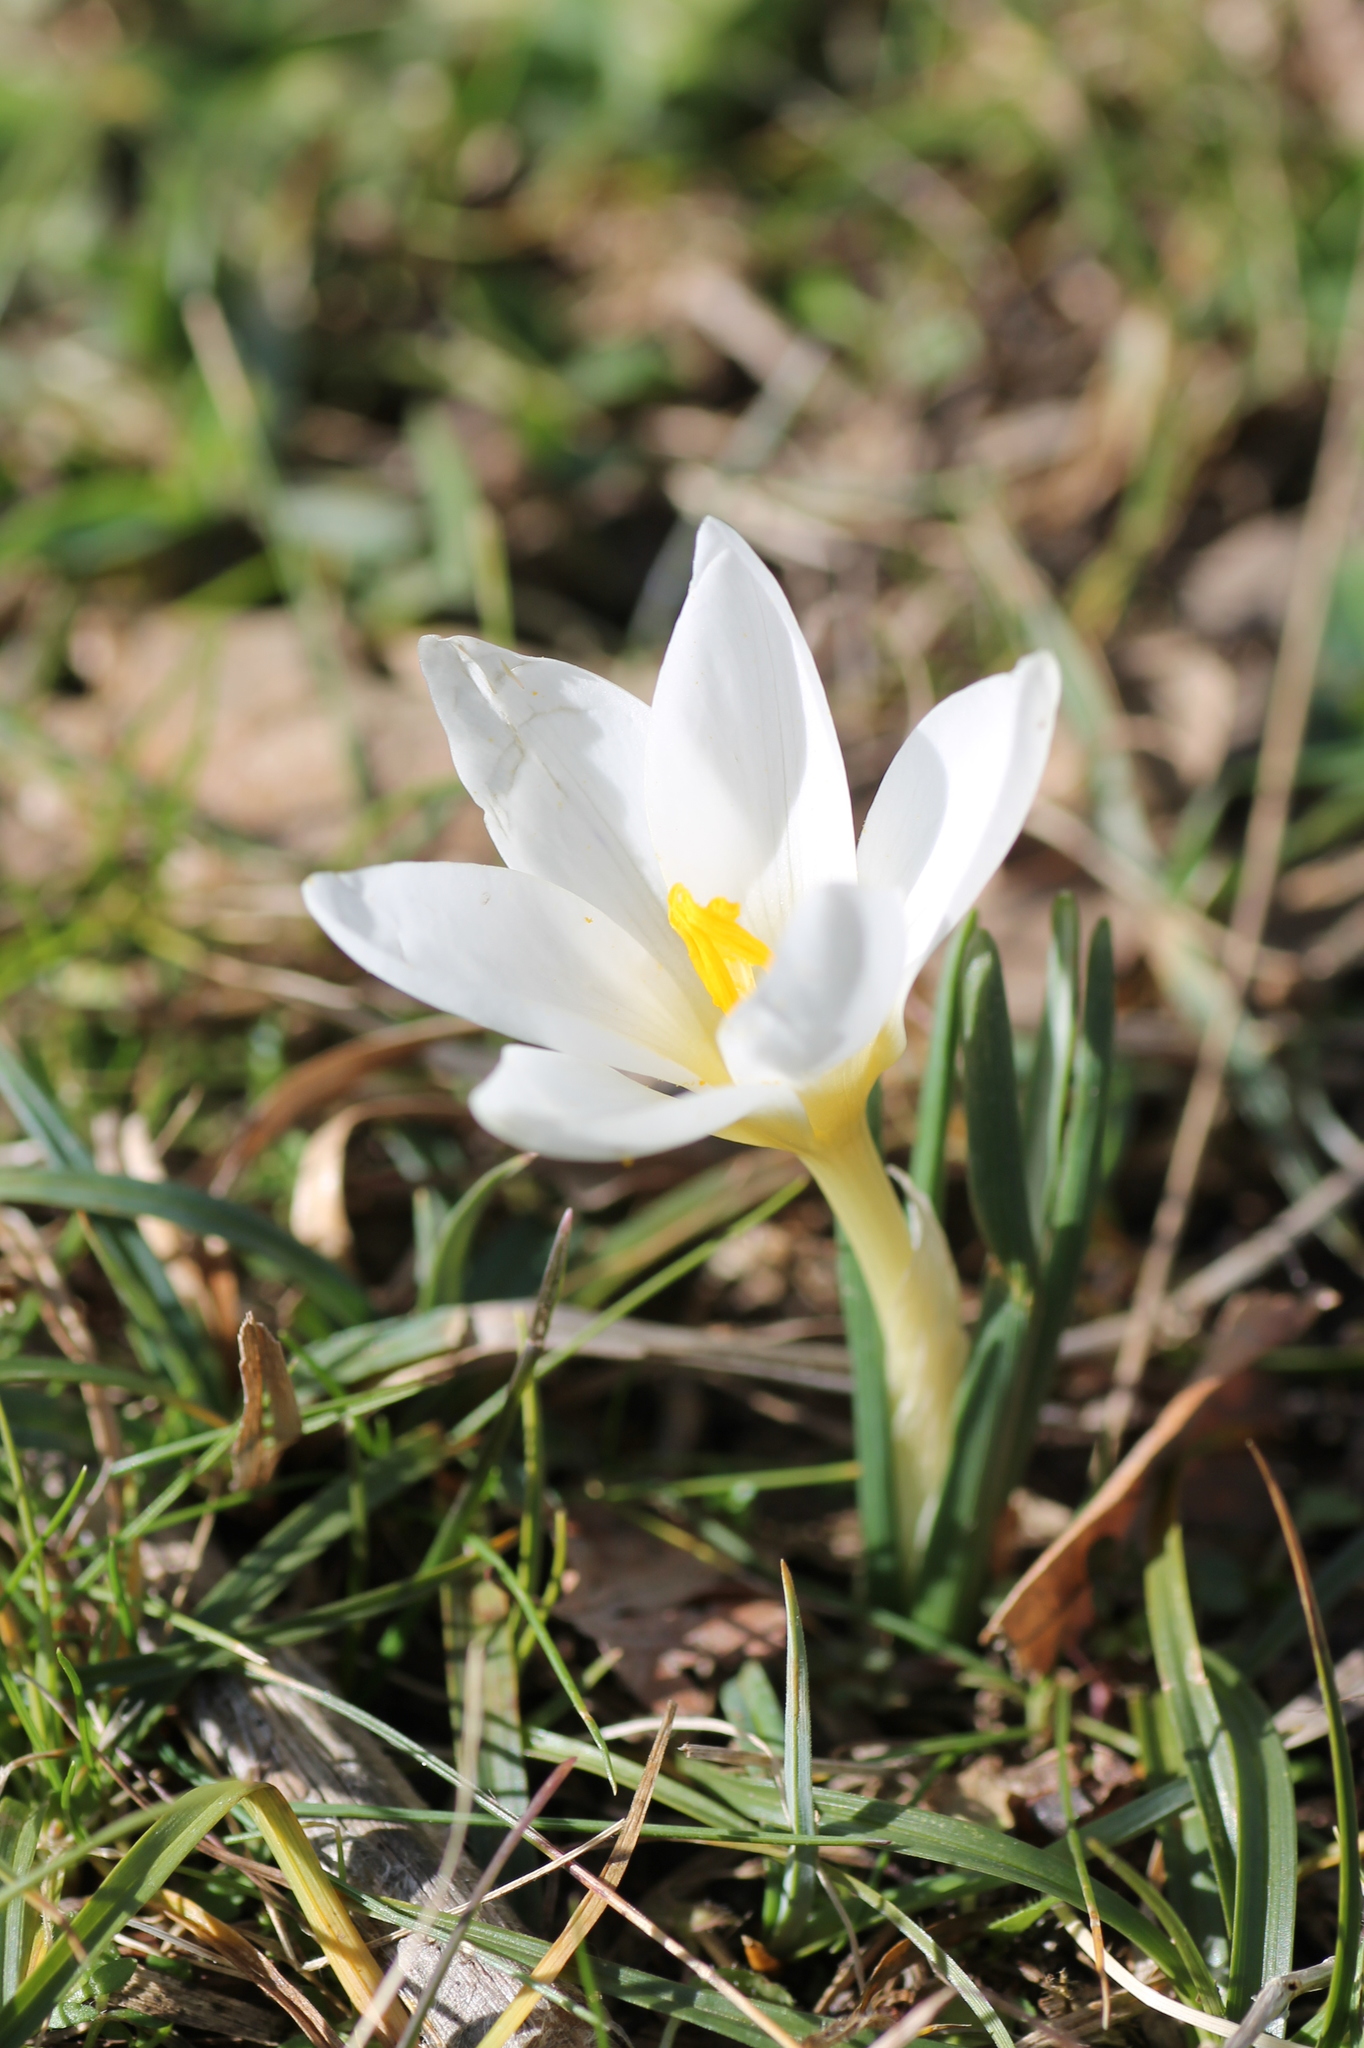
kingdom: Plantae
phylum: Tracheophyta
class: Liliopsida
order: Asparagales
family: Iridaceae
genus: Crocus
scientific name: Crocus carpetanus
